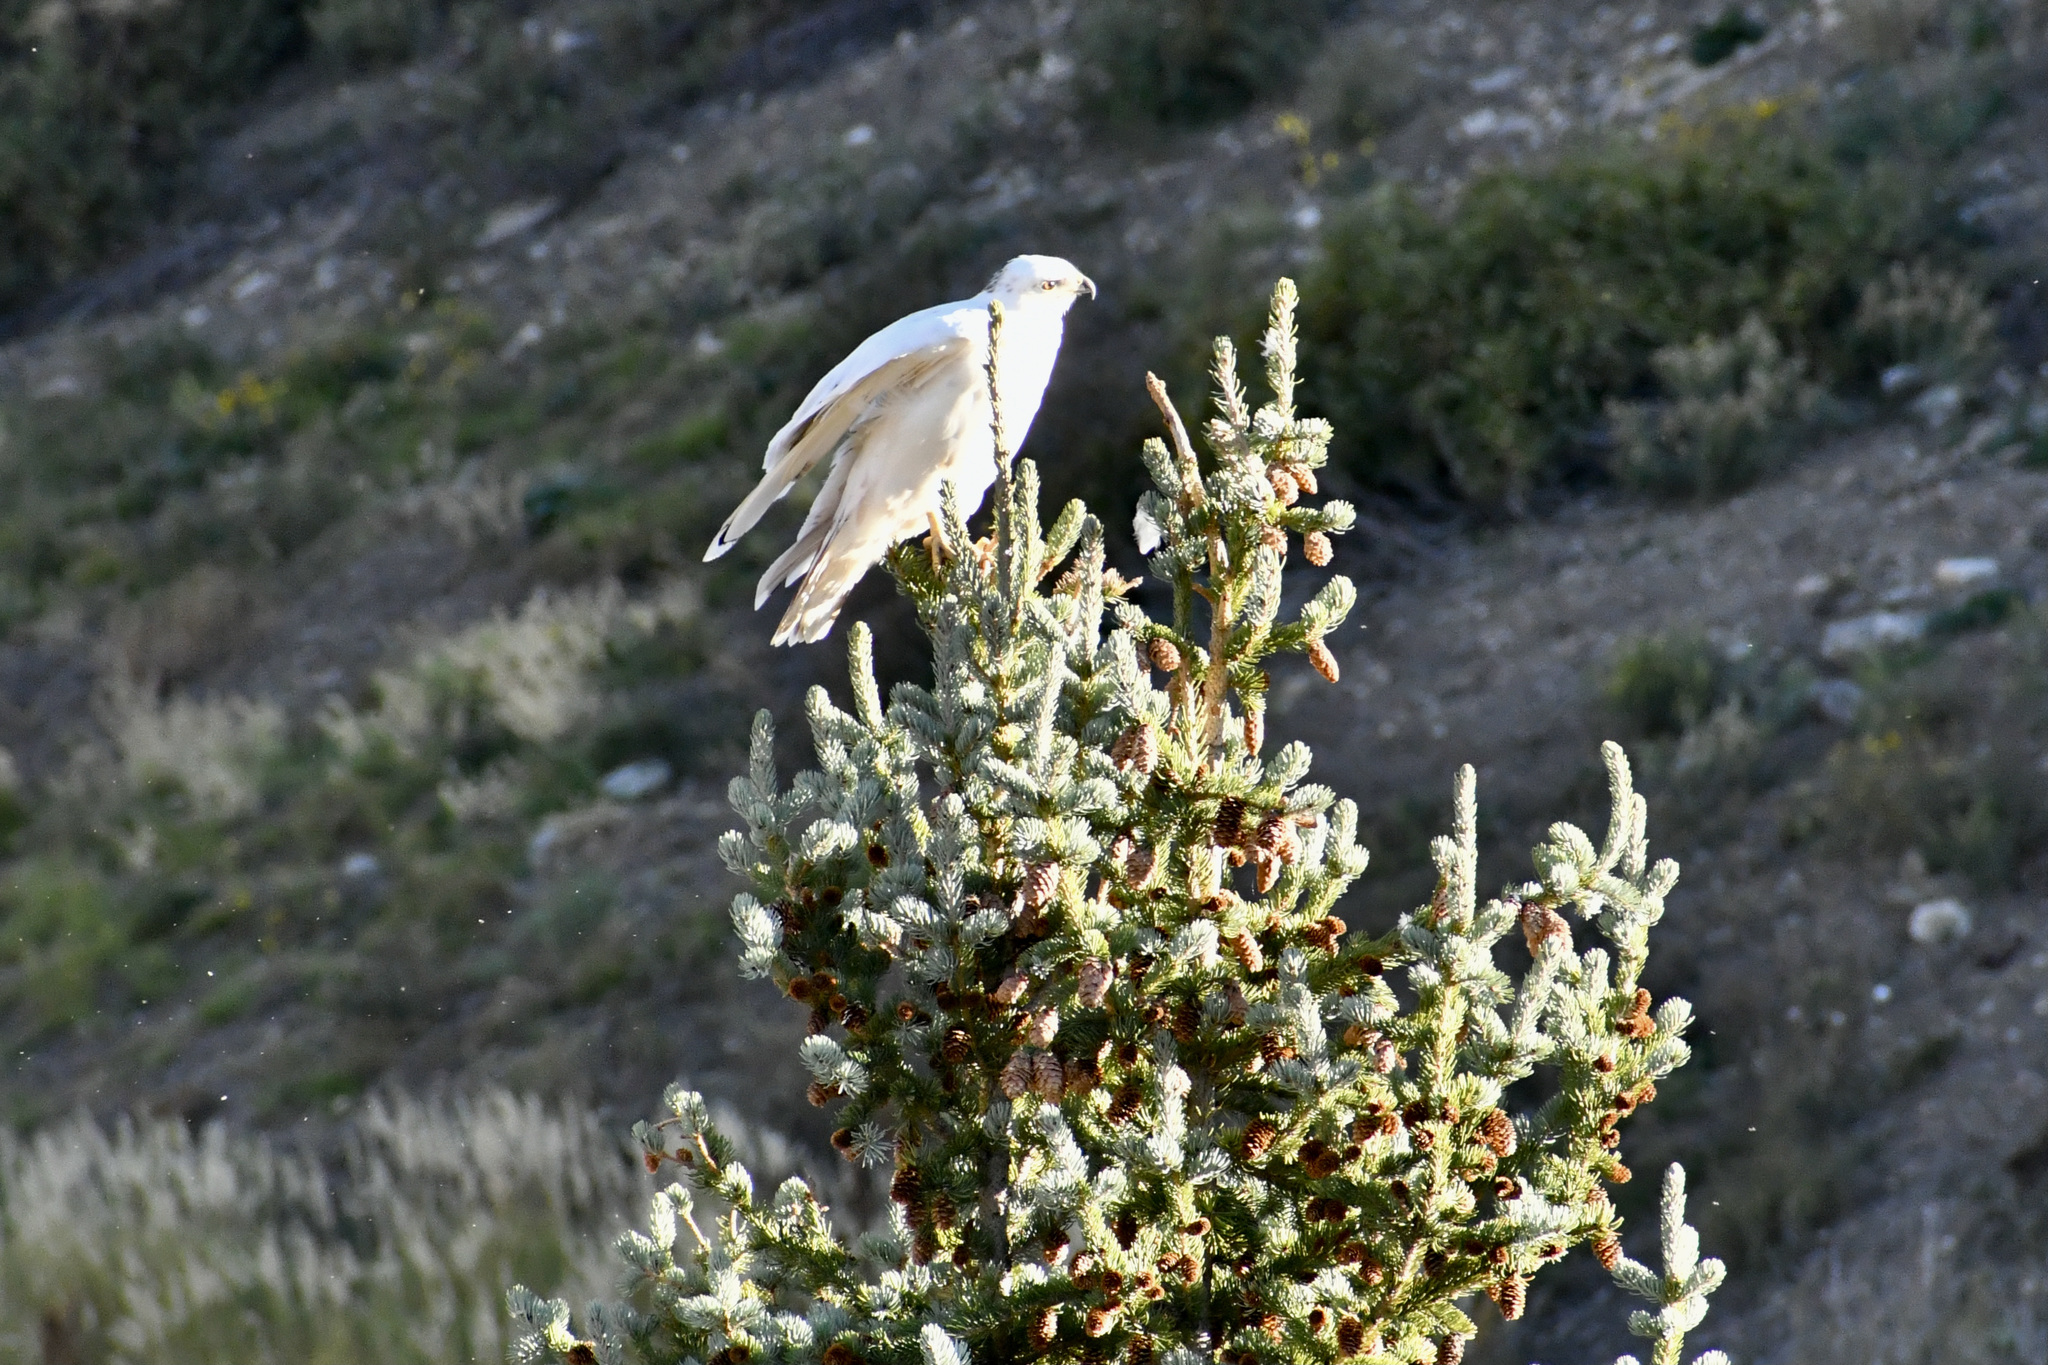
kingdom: Animalia
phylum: Chordata
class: Aves
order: Accipitriformes
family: Accipitridae
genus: Buteo
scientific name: Buteo jamaicensis
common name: Red-tailed hawk
